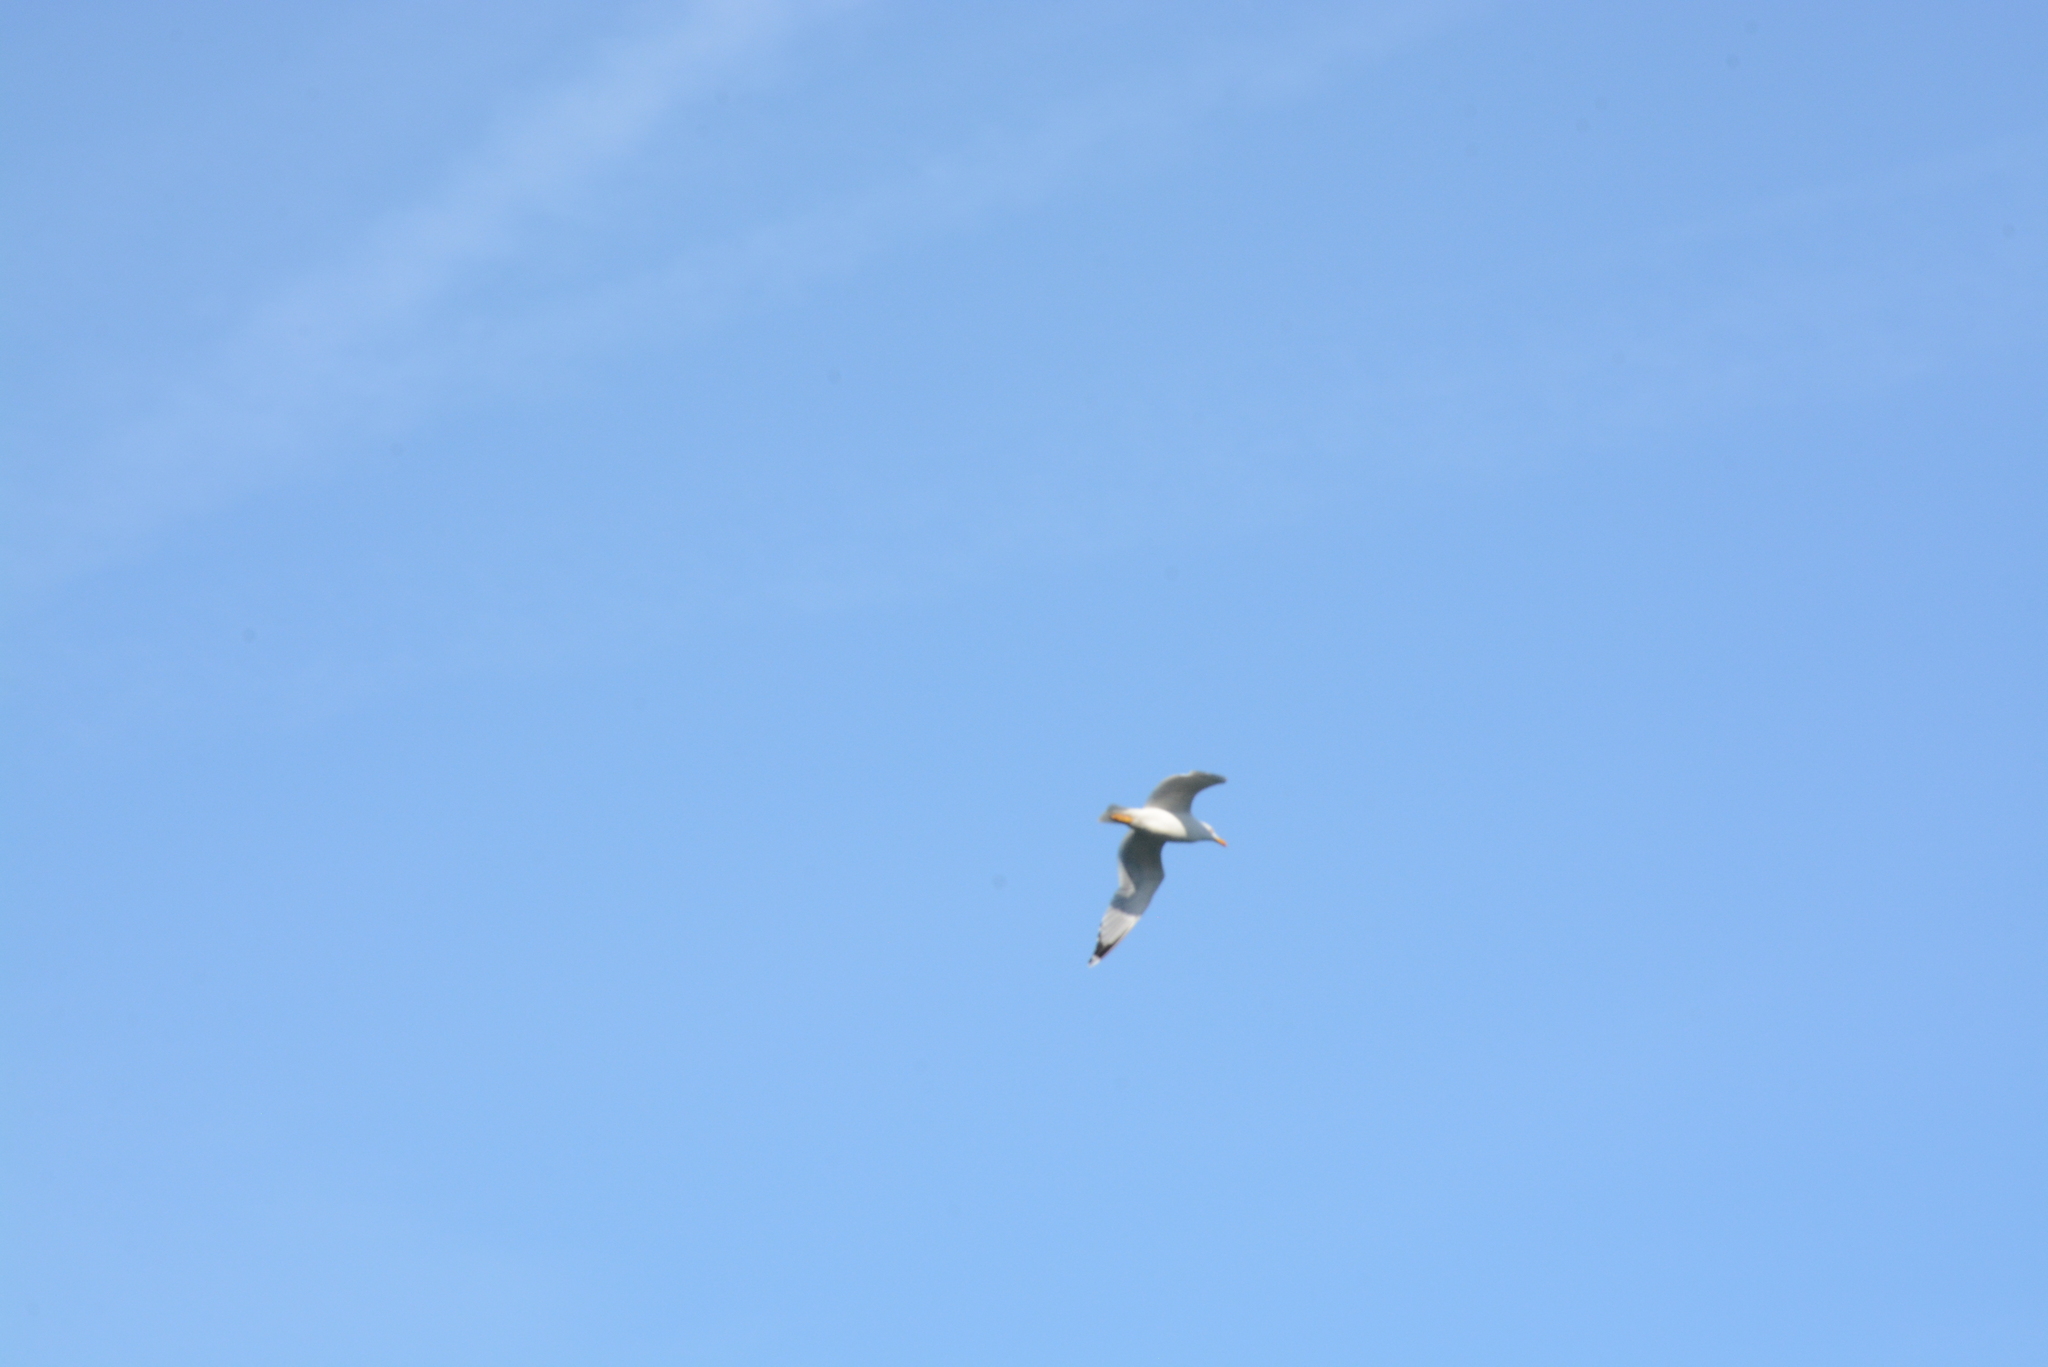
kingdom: Animalia
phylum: Chordata
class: Aves
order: Charadriiformes
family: Laridae
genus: Larus
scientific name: Larus michahellis
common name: Yellow-legged gull
